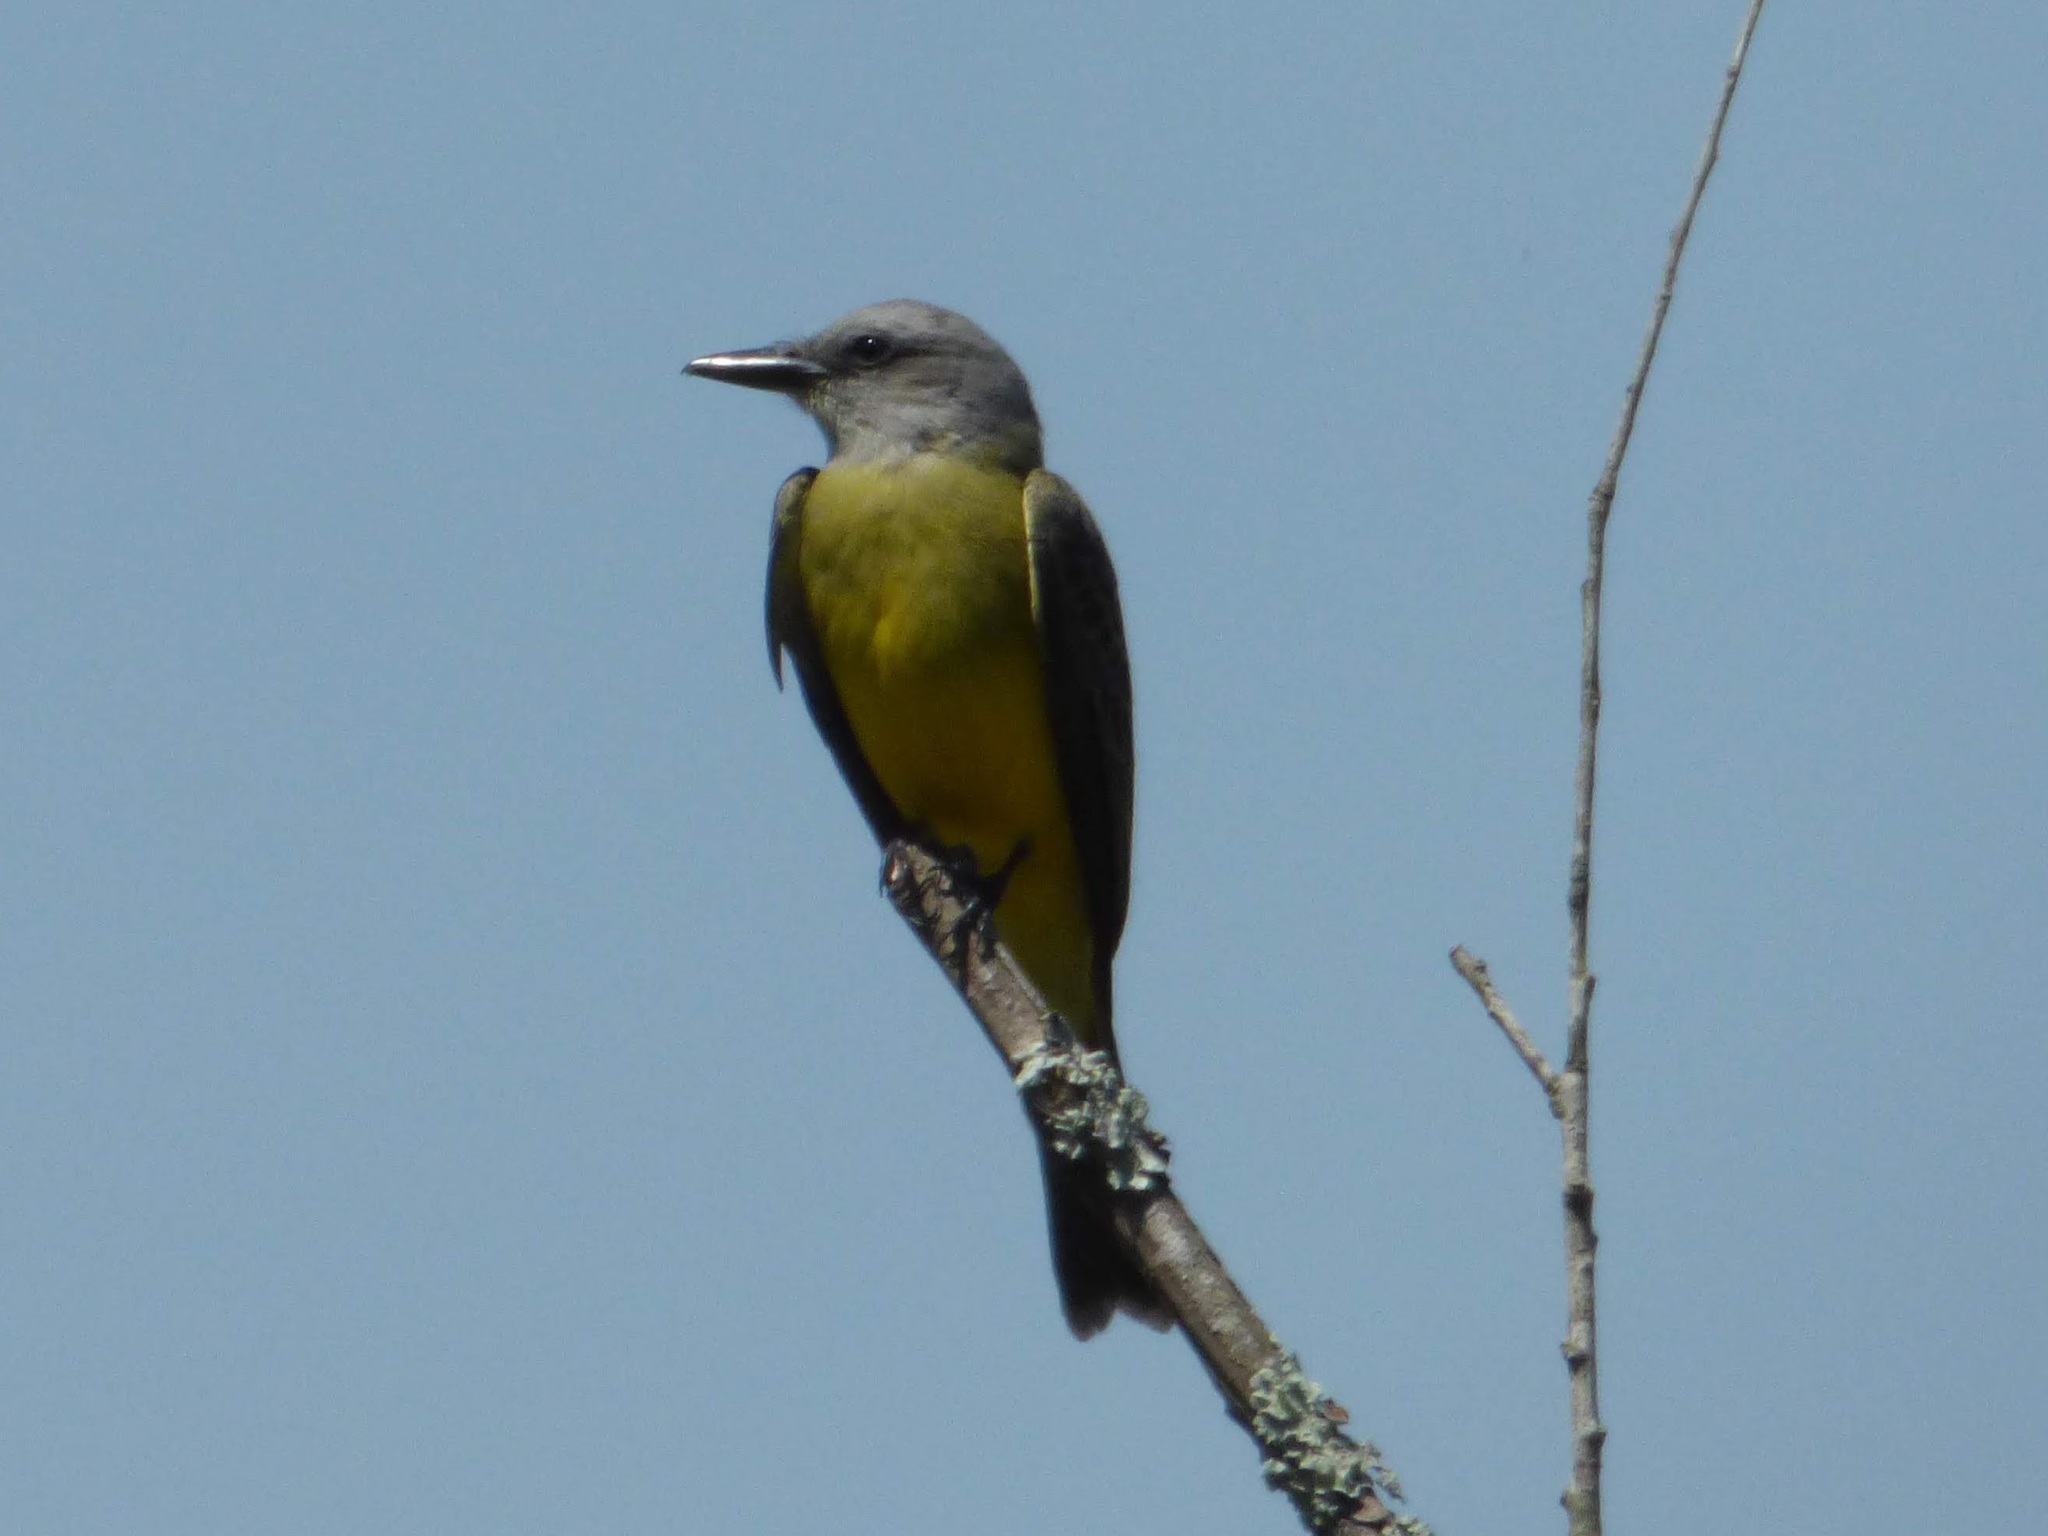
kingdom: Animalia
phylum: Chordata
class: Aves
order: Passeriformes
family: Tyrannidae
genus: Tyrannus
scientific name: Tyrannus melancholicus
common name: Tropical kingbird
